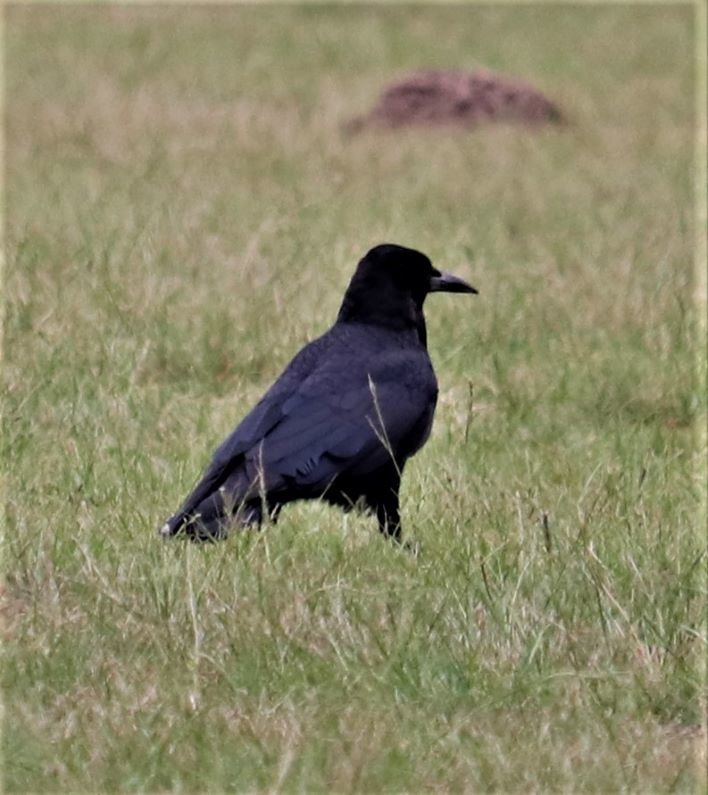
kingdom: Animalia
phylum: Chordata
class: Aves
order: Passeriformes
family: Corvidae
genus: Corvus
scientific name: Corvus capensis
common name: Cape crow
